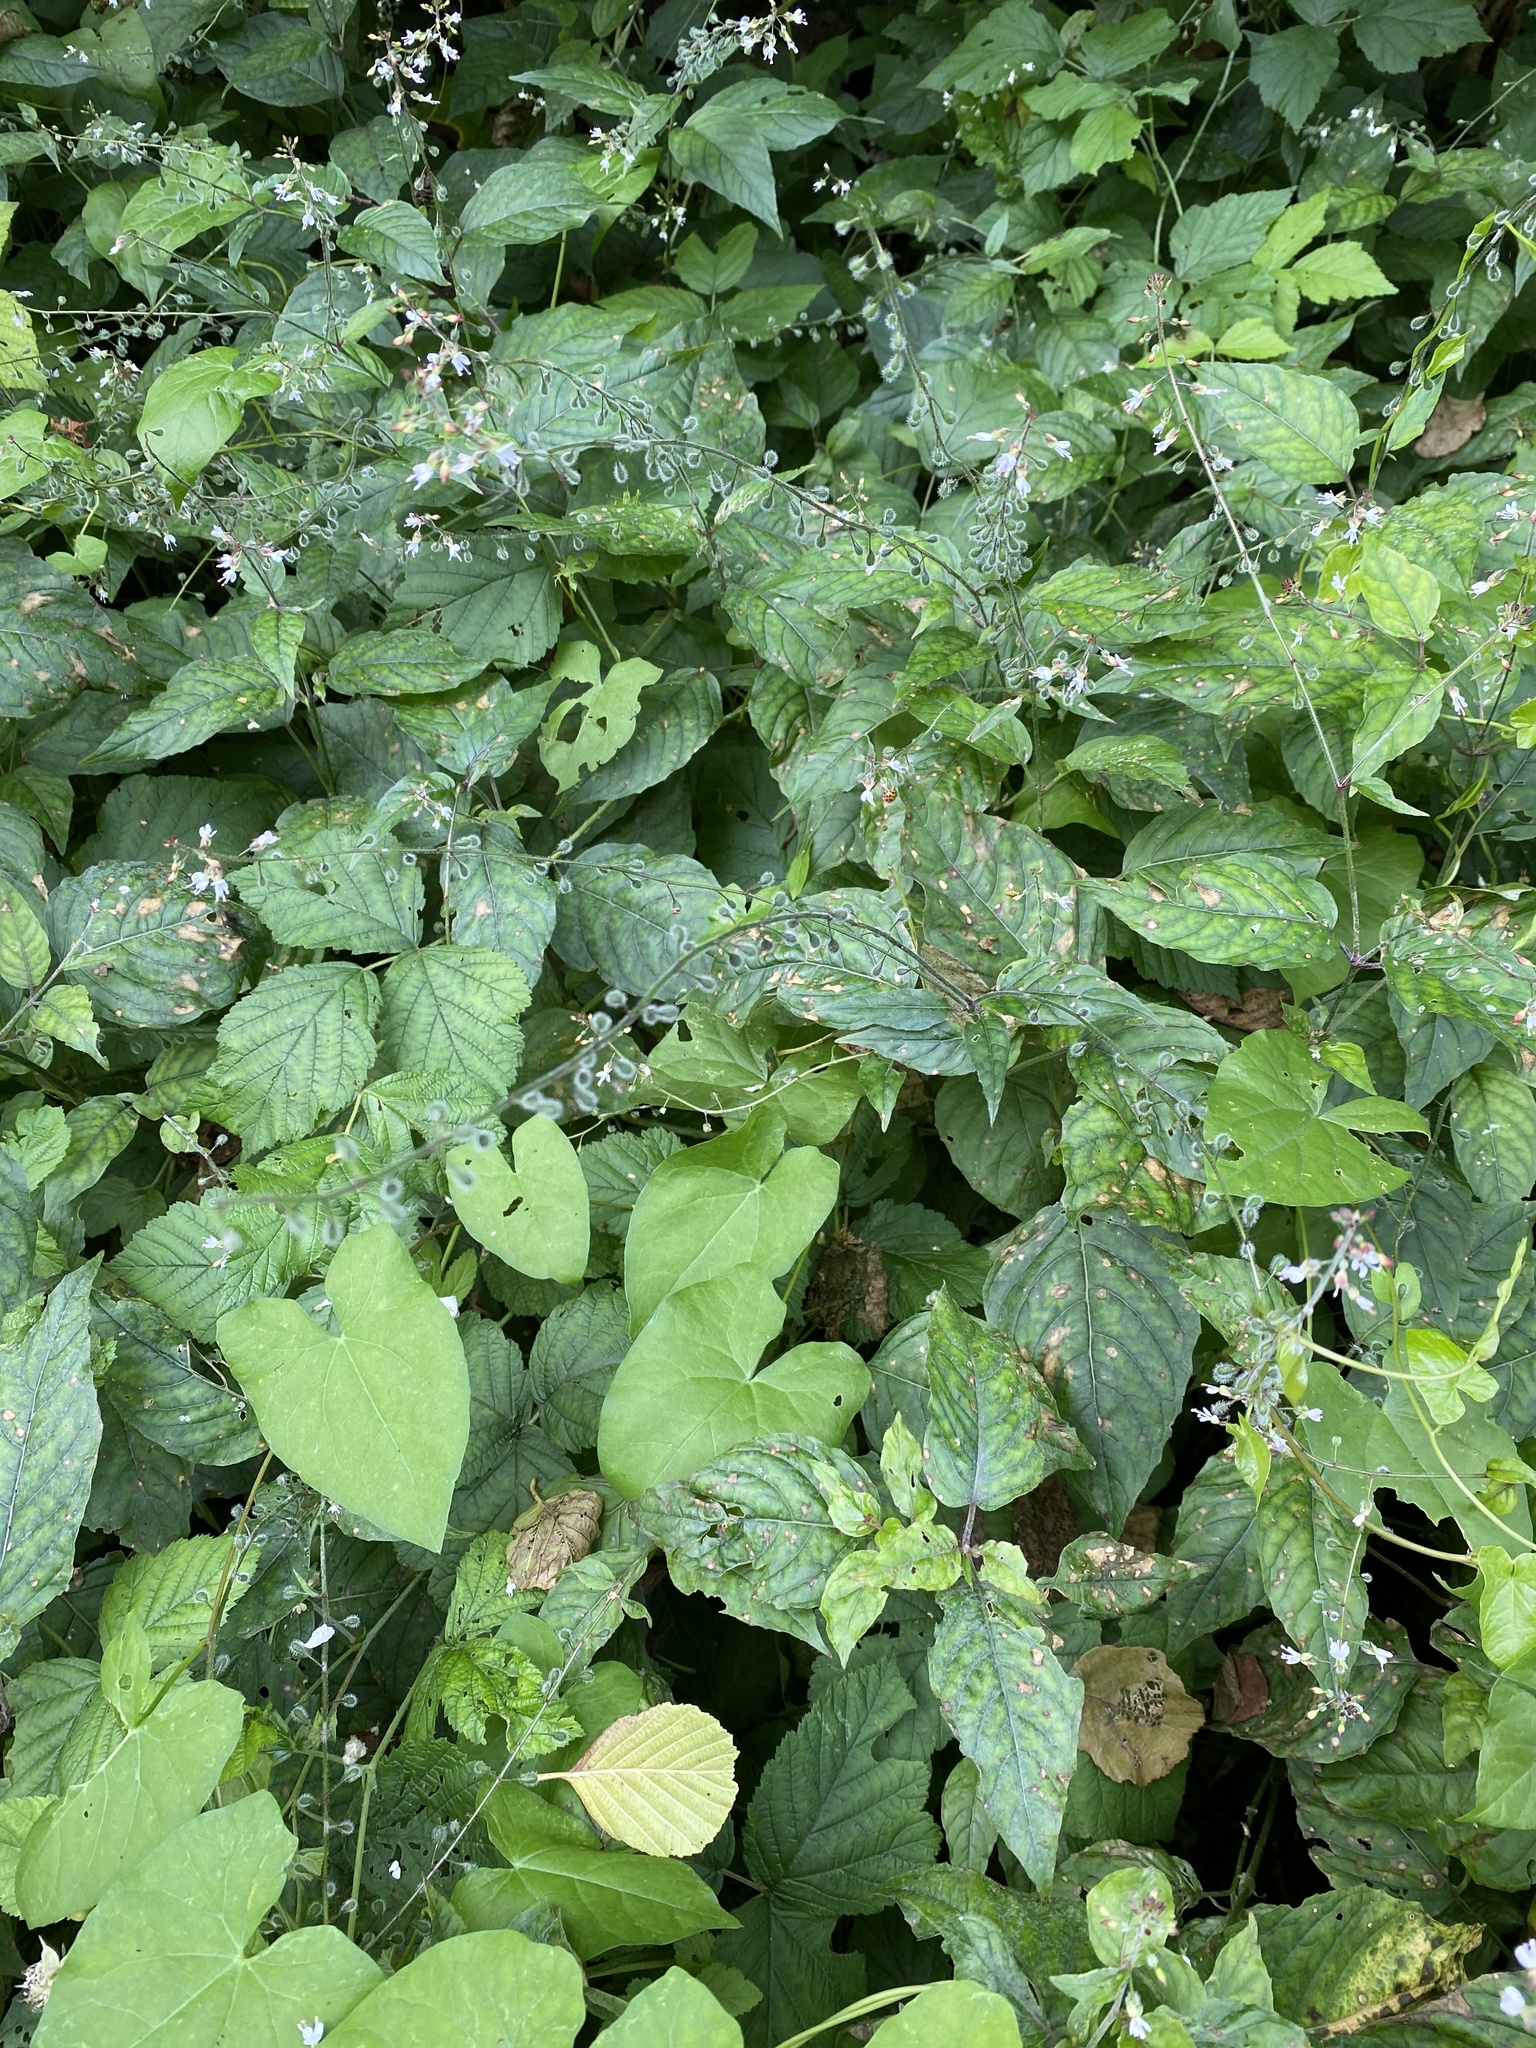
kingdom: Plantae
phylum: Tracheophyta
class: Magnoliopsida
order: Myrtales
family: Onagraceae
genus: Circaea
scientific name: Circaea lutetiana
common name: Enchanter's-nightshade
